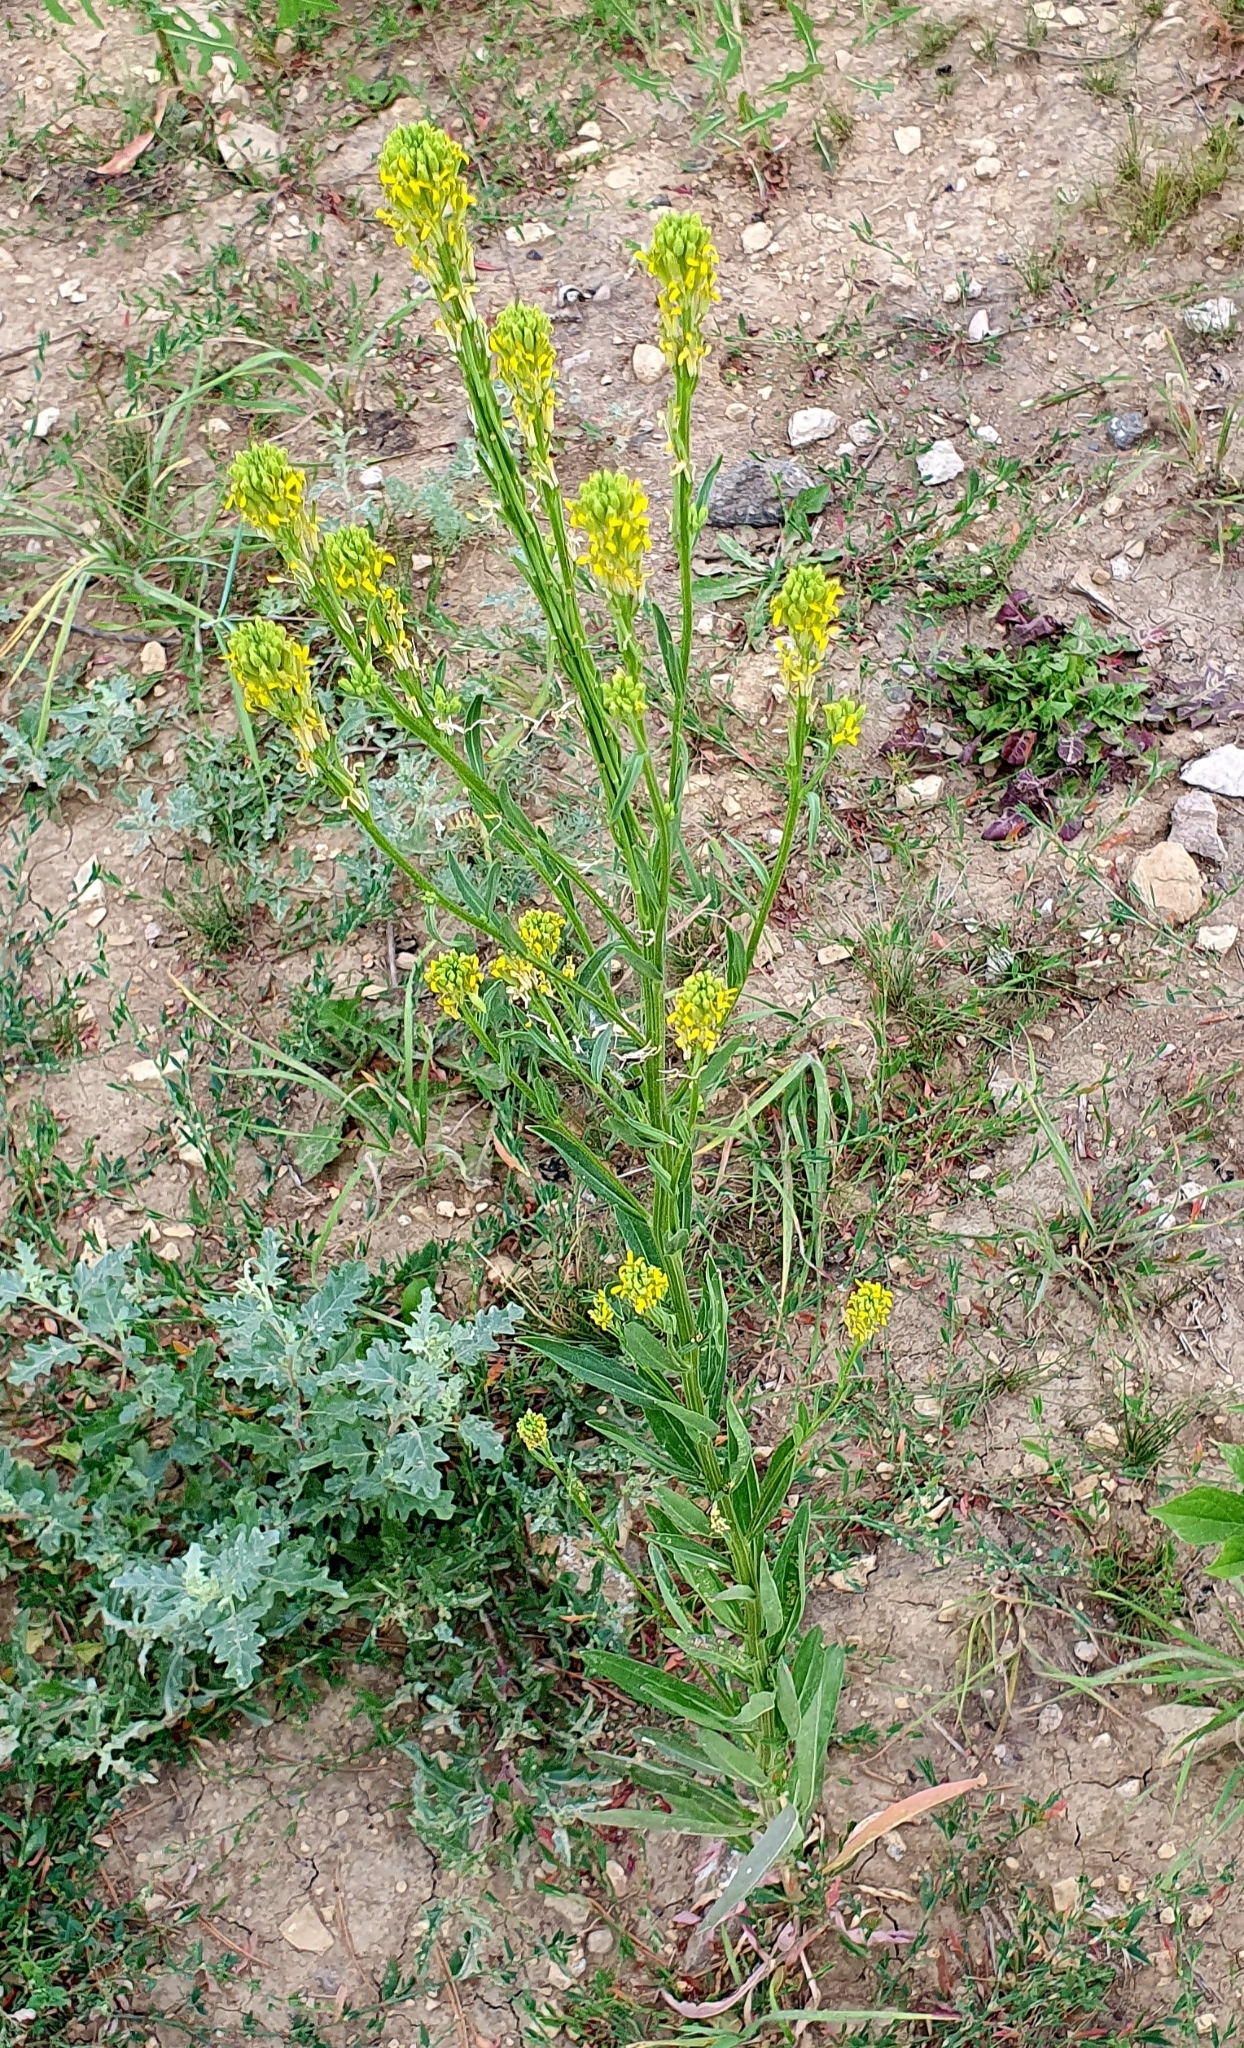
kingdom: Plantae
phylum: Tracheophyta
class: Magnoliopsida
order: Brassicales
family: Brassicaceae
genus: Erysimum
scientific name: Erysimum hieraciifolium
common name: European wallflower
